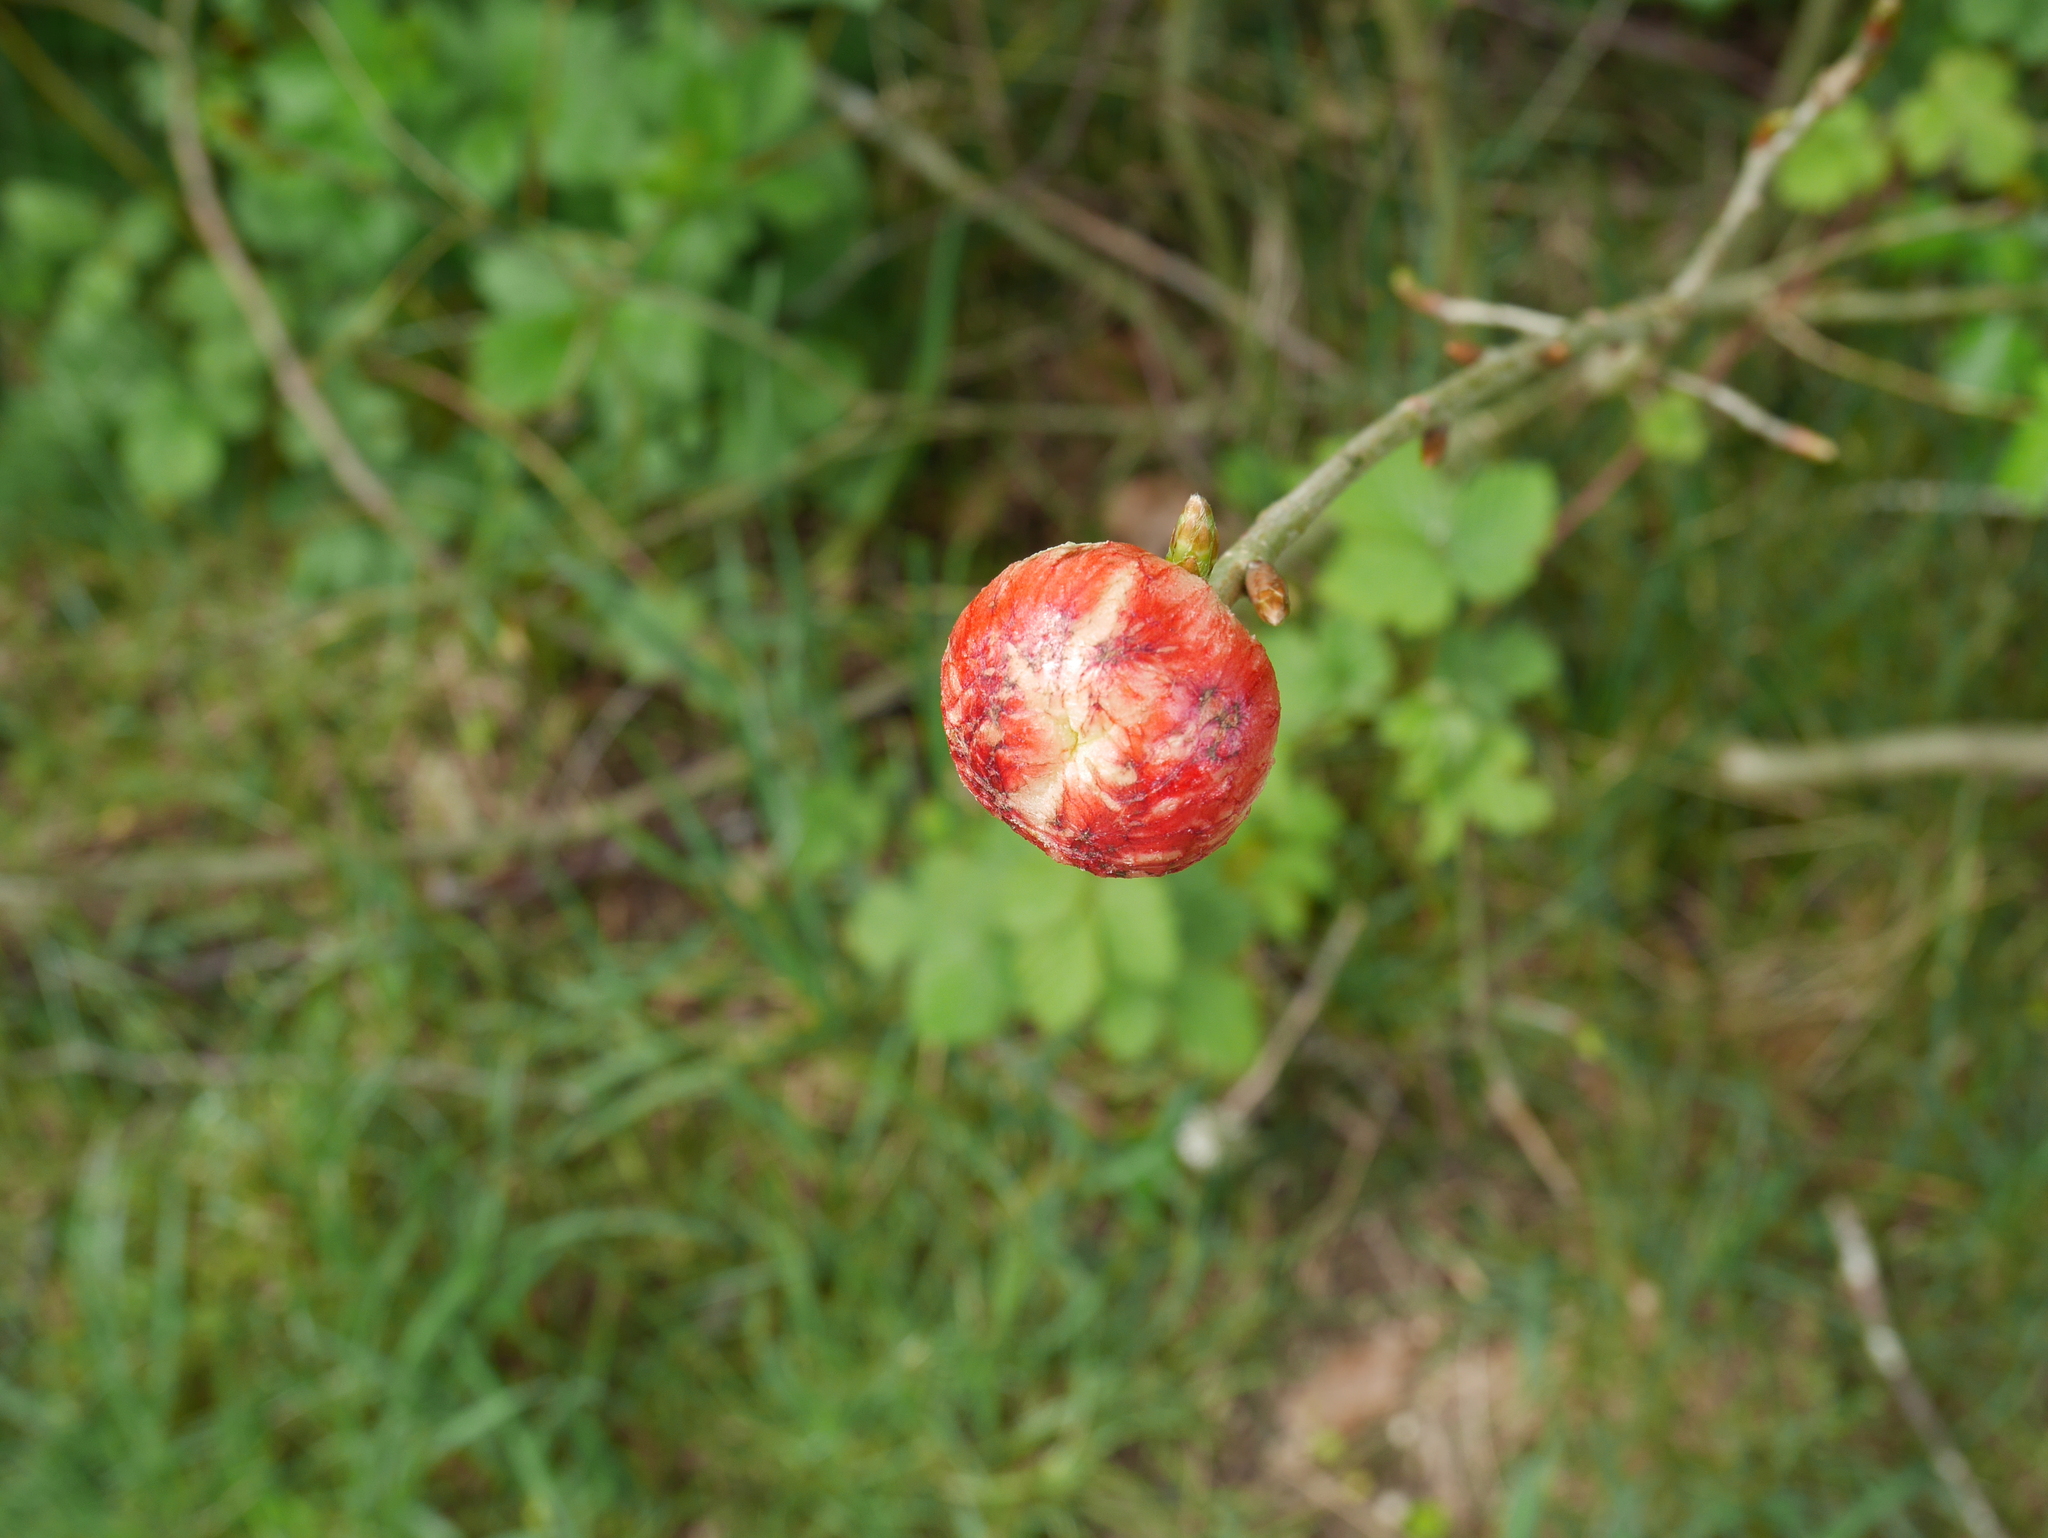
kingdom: Animalia
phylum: Arthropoda
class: Insecta
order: Hymenoptera
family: Cynipidae
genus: Biorhiza
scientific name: Biorhiza pallida
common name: Oak apple
